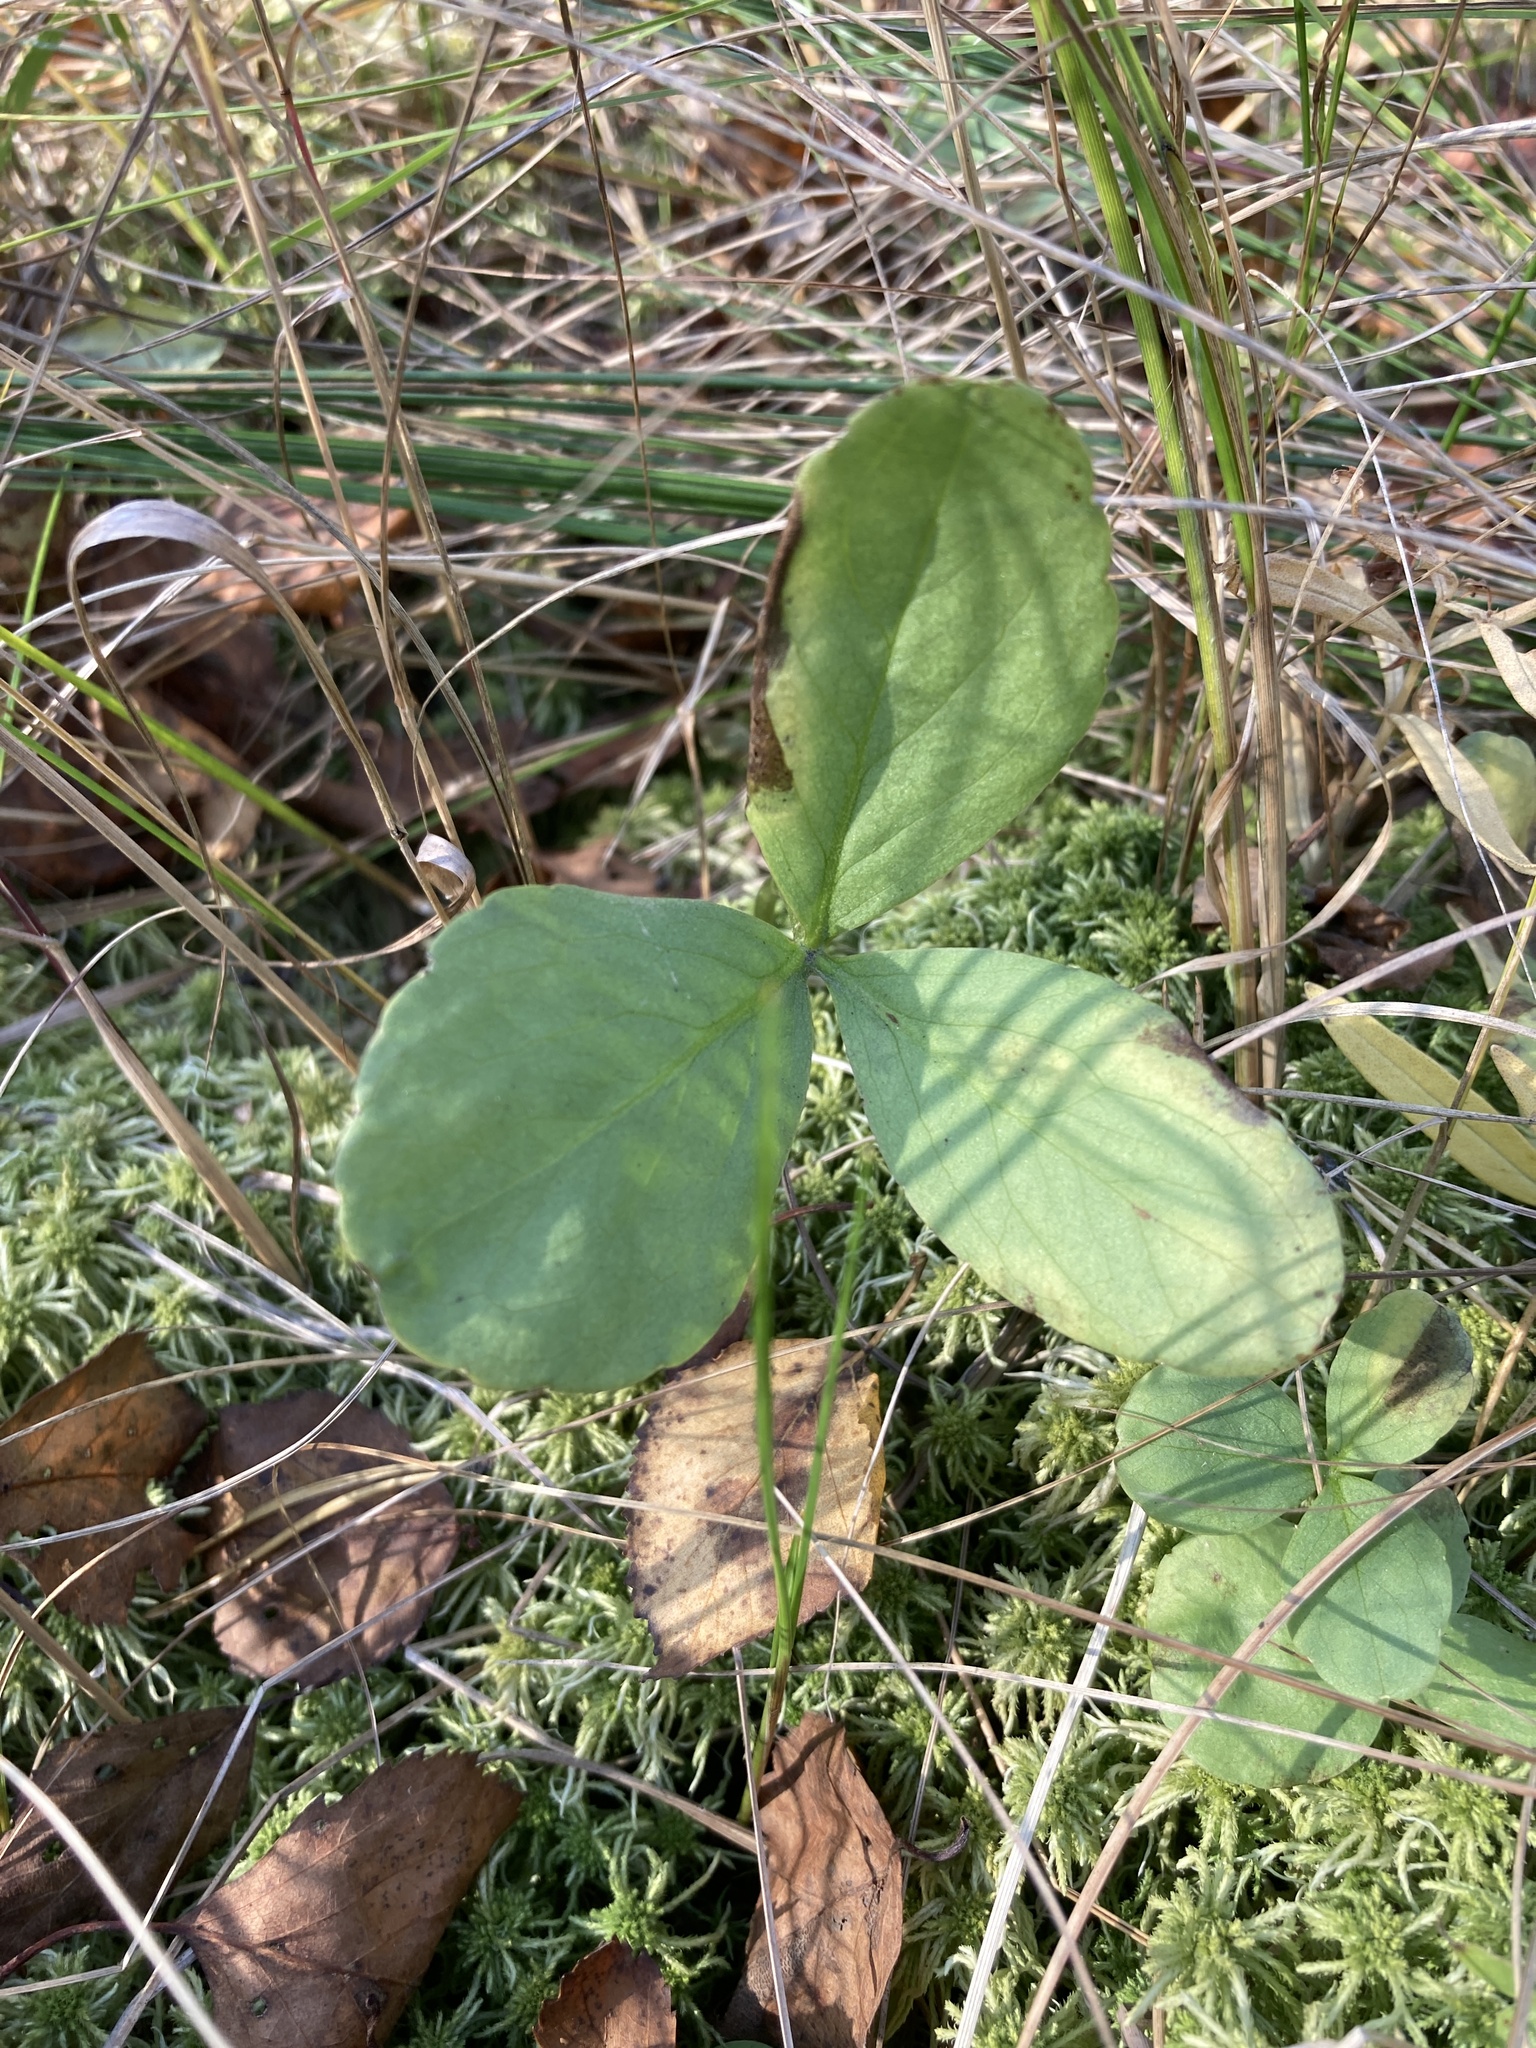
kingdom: Plantae
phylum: Tracheophyta
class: Magnoliopsida
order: Asterales
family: Menyanthaceae
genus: Menyanthes
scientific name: Menyanthes trifoliata
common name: Bogbean
